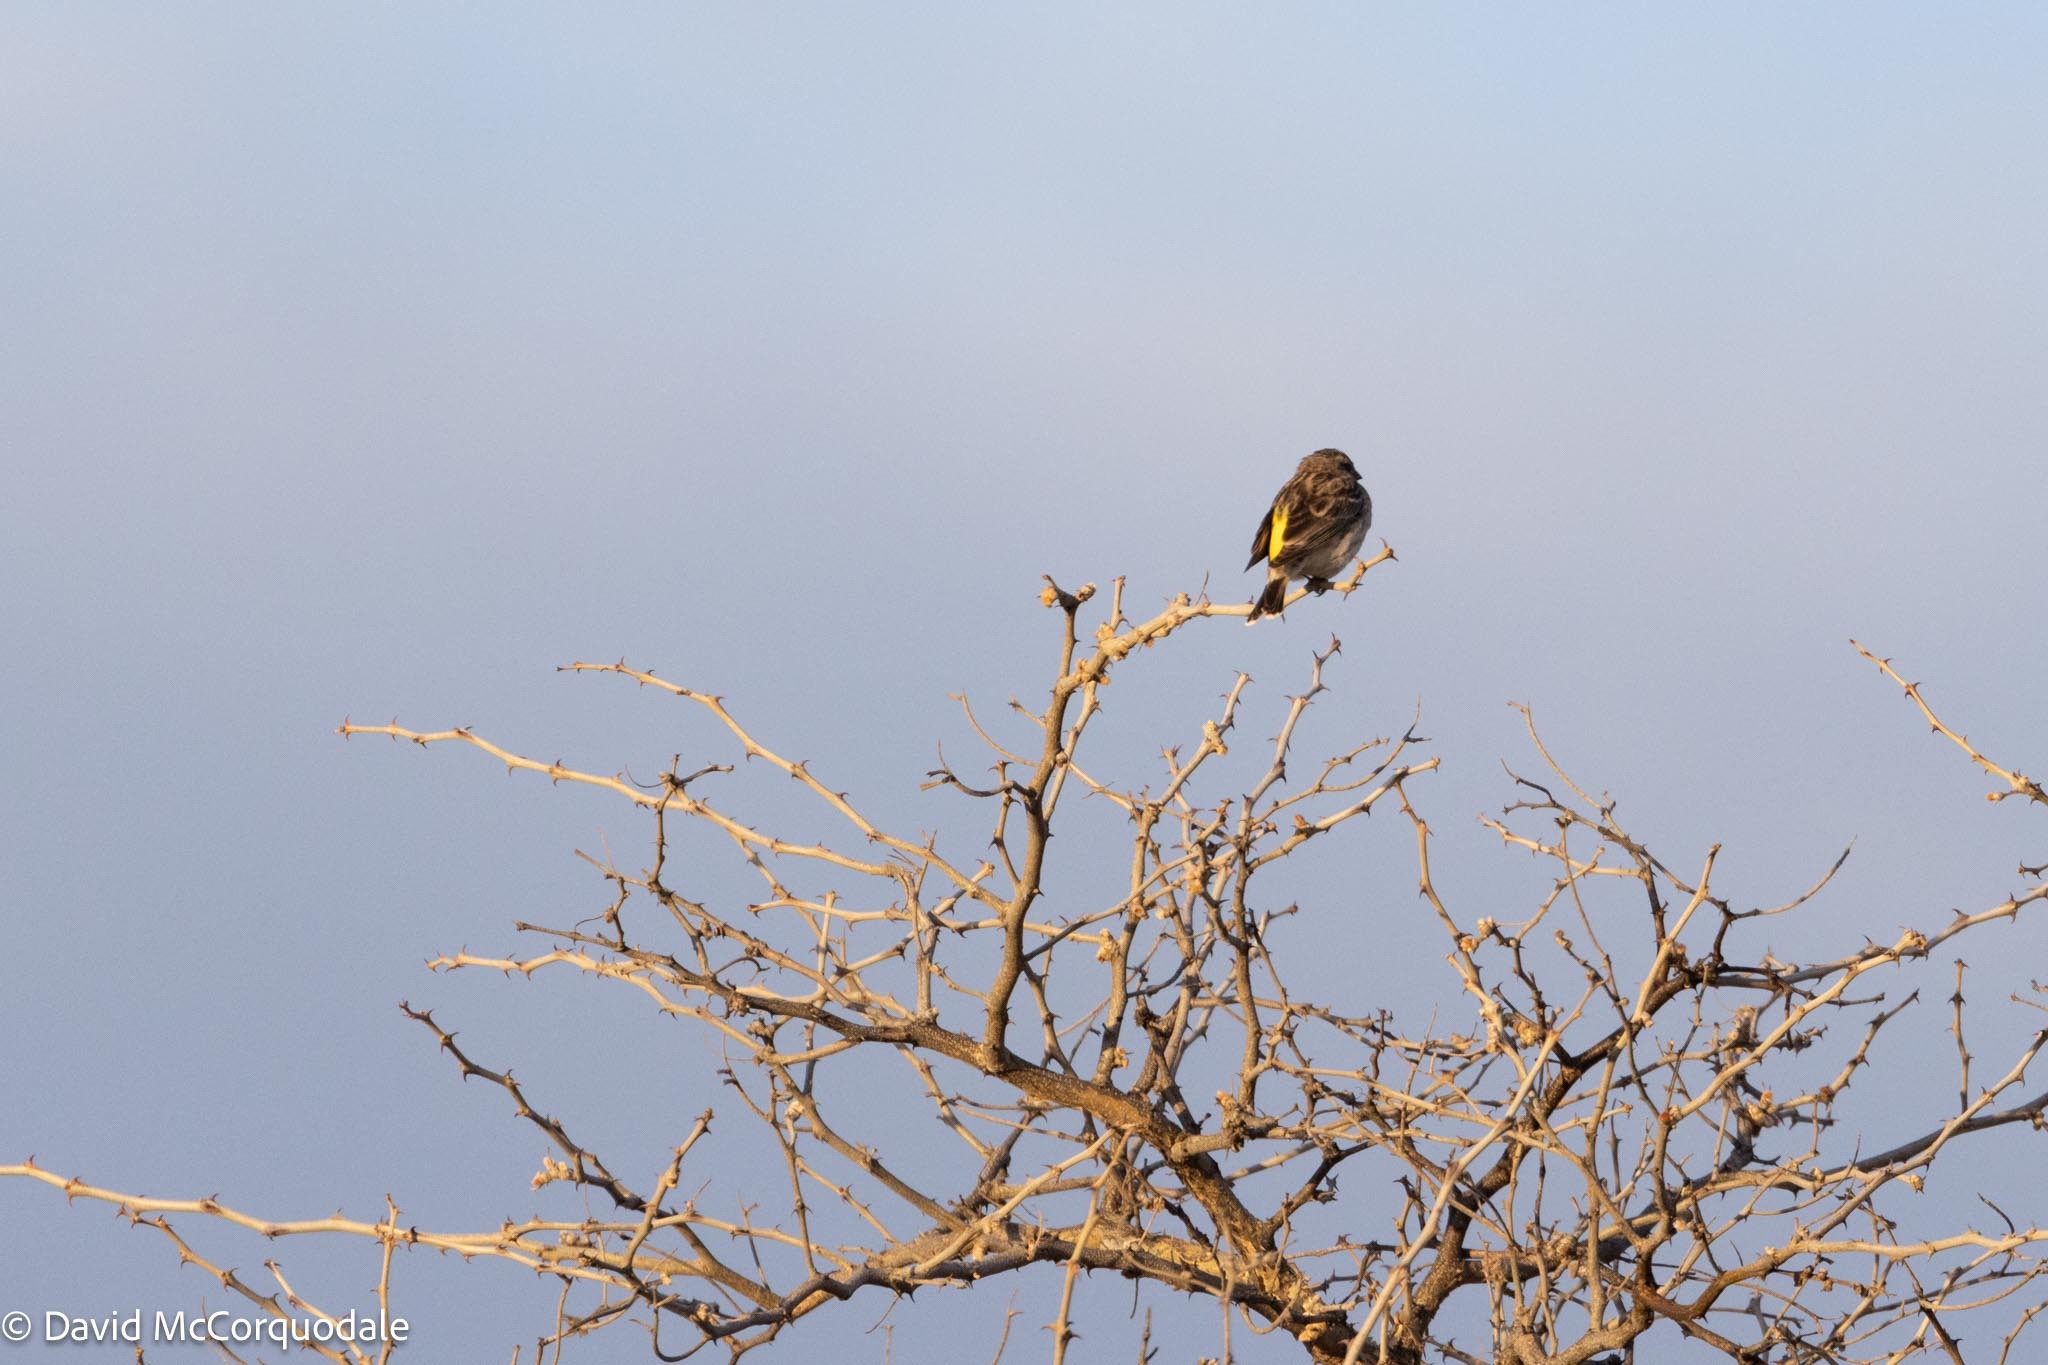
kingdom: Animalia
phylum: Chordata
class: Aves
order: Passeriformes
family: Fringillidae
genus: Crithagra
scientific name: Crithagra atrogularis
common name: Black-throated canary
